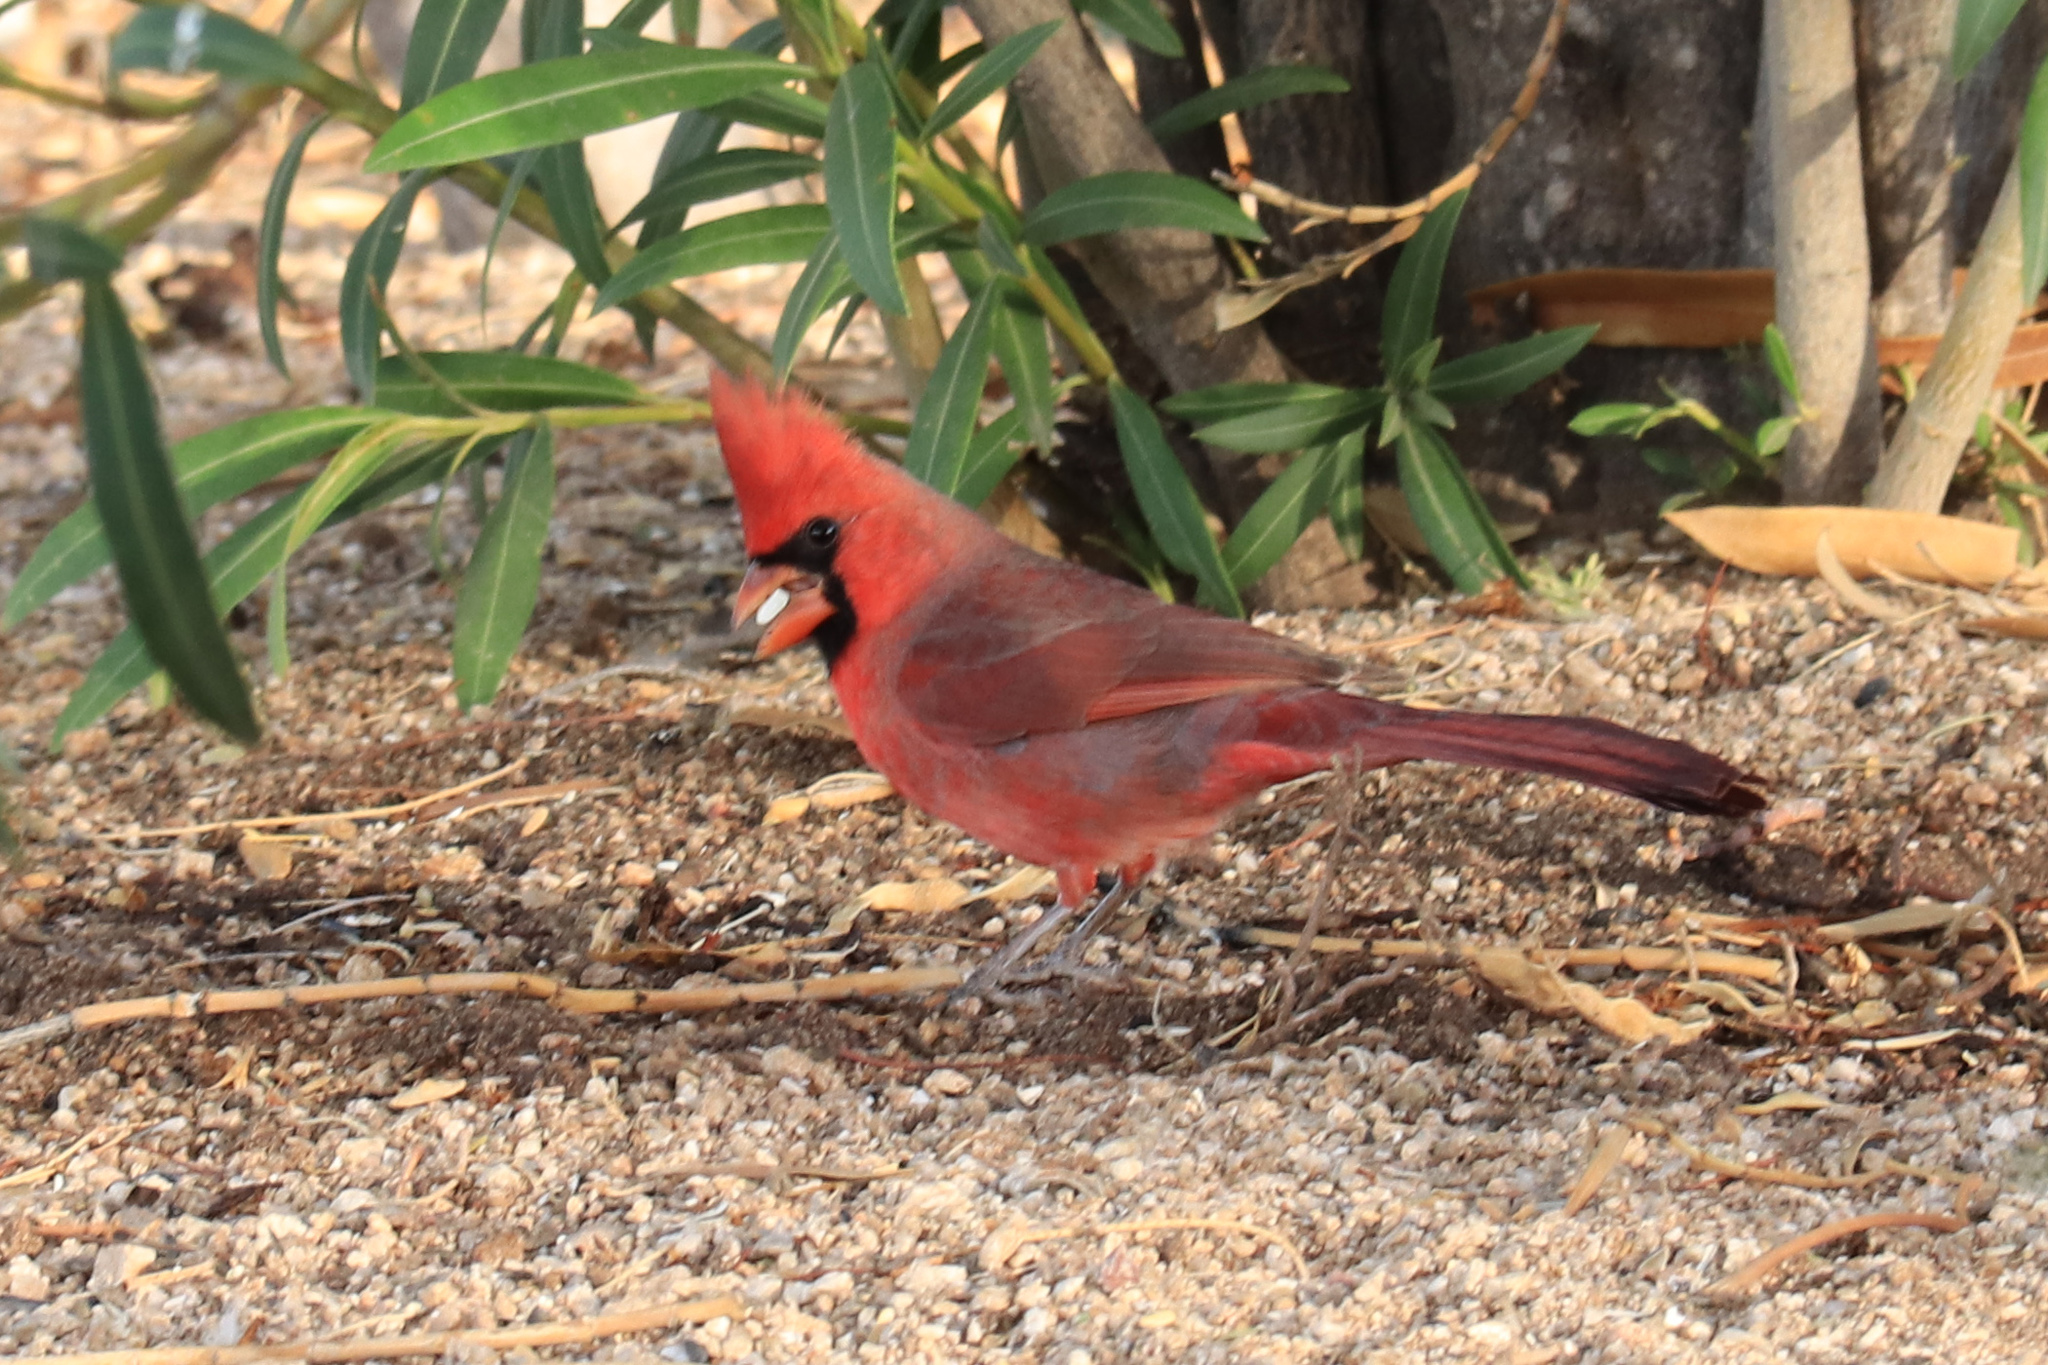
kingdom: Animalia
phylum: Chordata
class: Aves
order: Passeriformes
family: Cardinalidae
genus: Cardinalis
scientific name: Cardinalis cardinalis
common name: Northern cardinal
